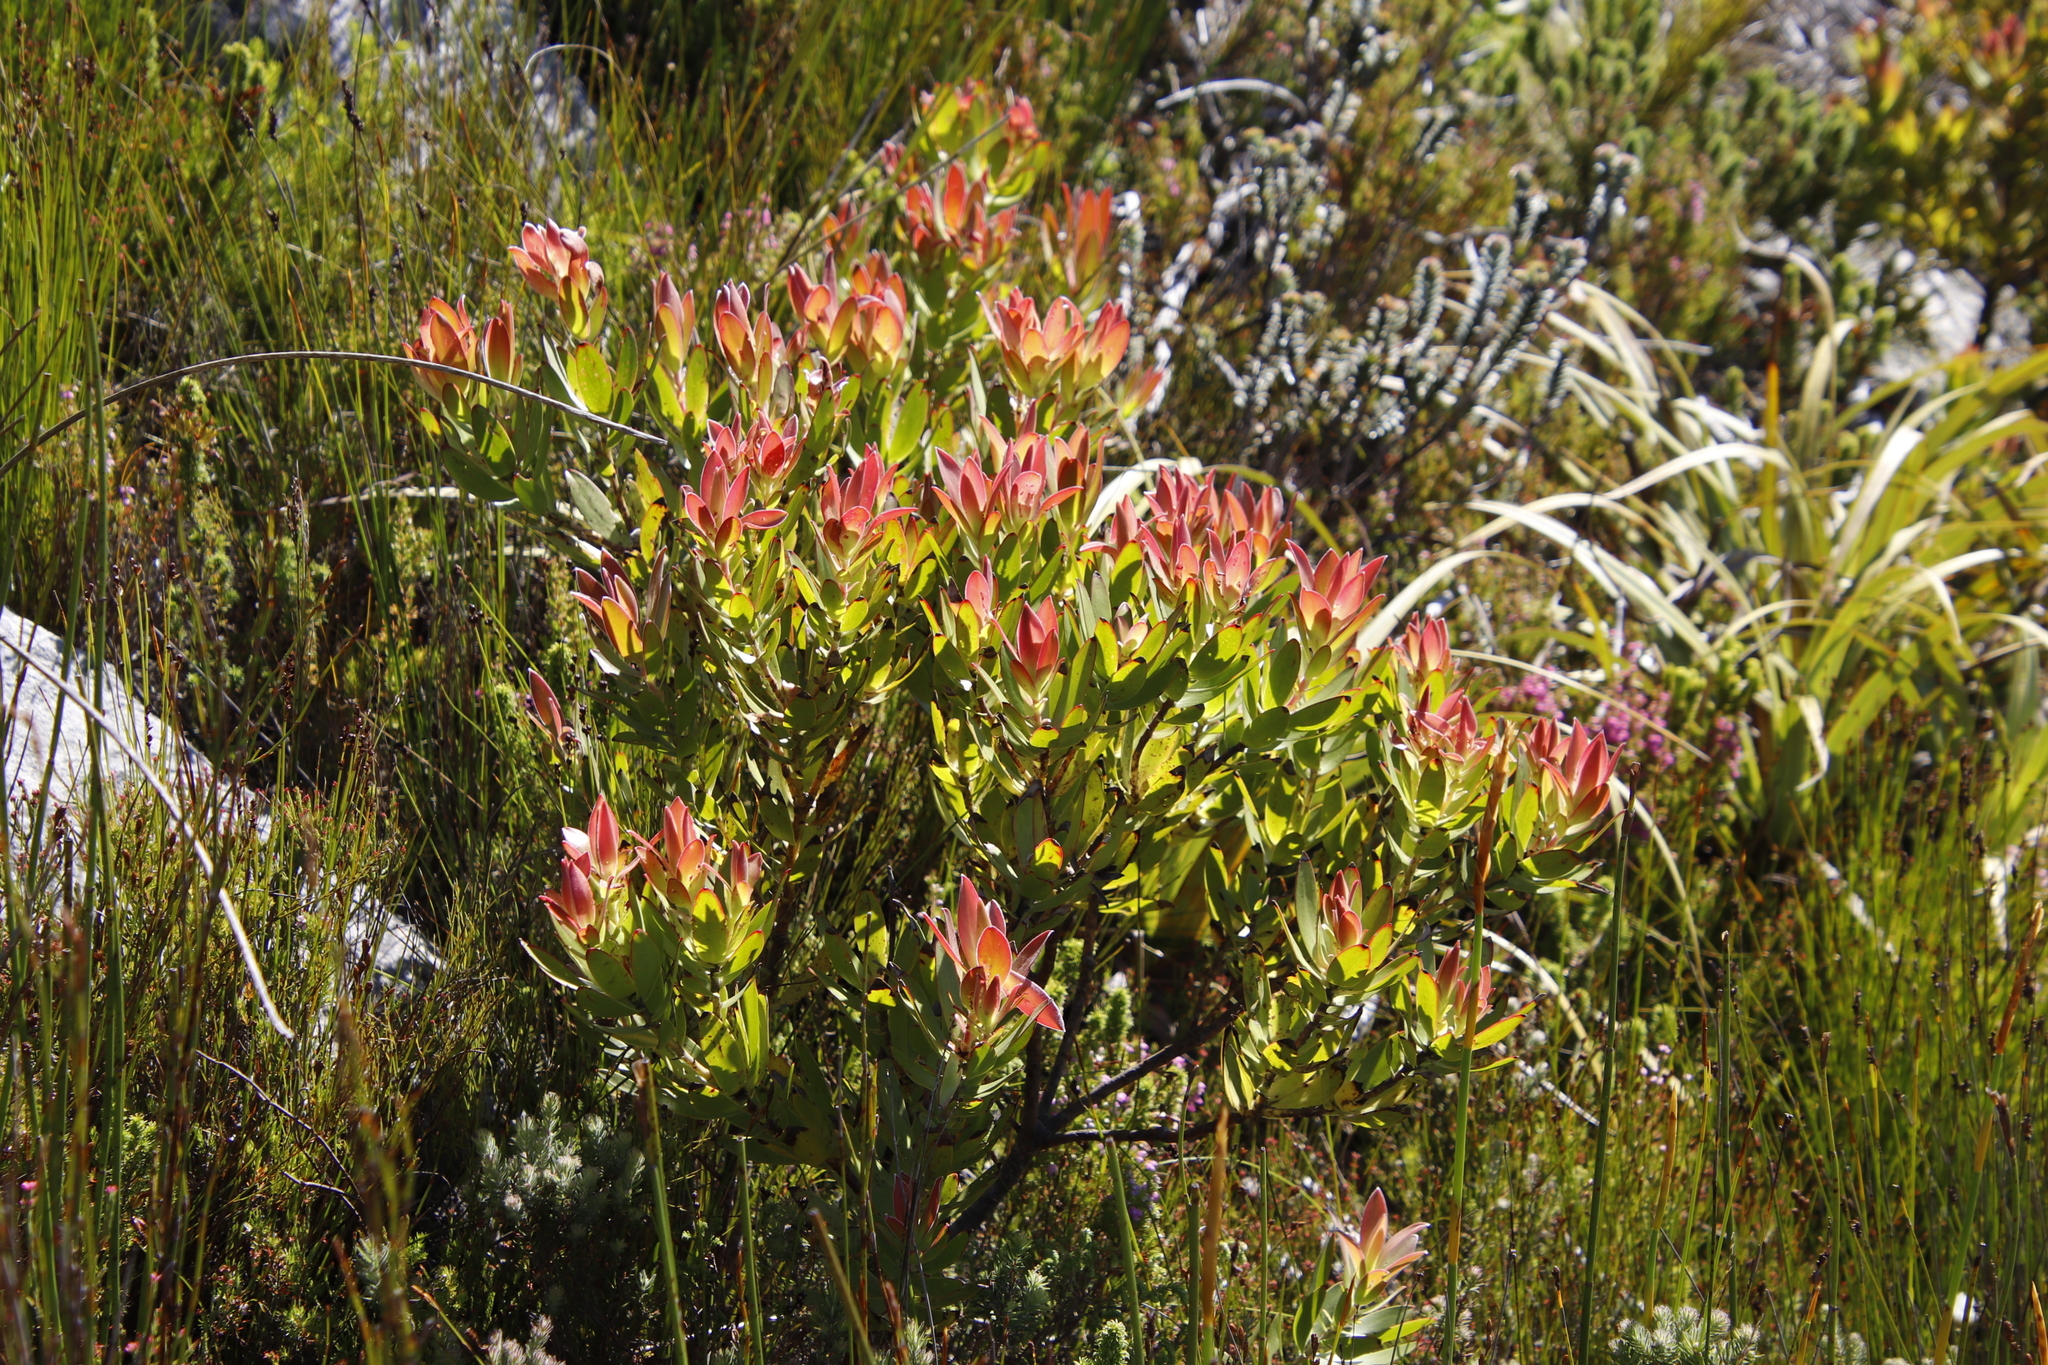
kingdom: Plantae
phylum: Tracheophyta
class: Magnoliopsida
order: Proteales
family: Proteaceae
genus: Leucadendron
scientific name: Leucadendron gandogeri
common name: Broad-leaf conebush
